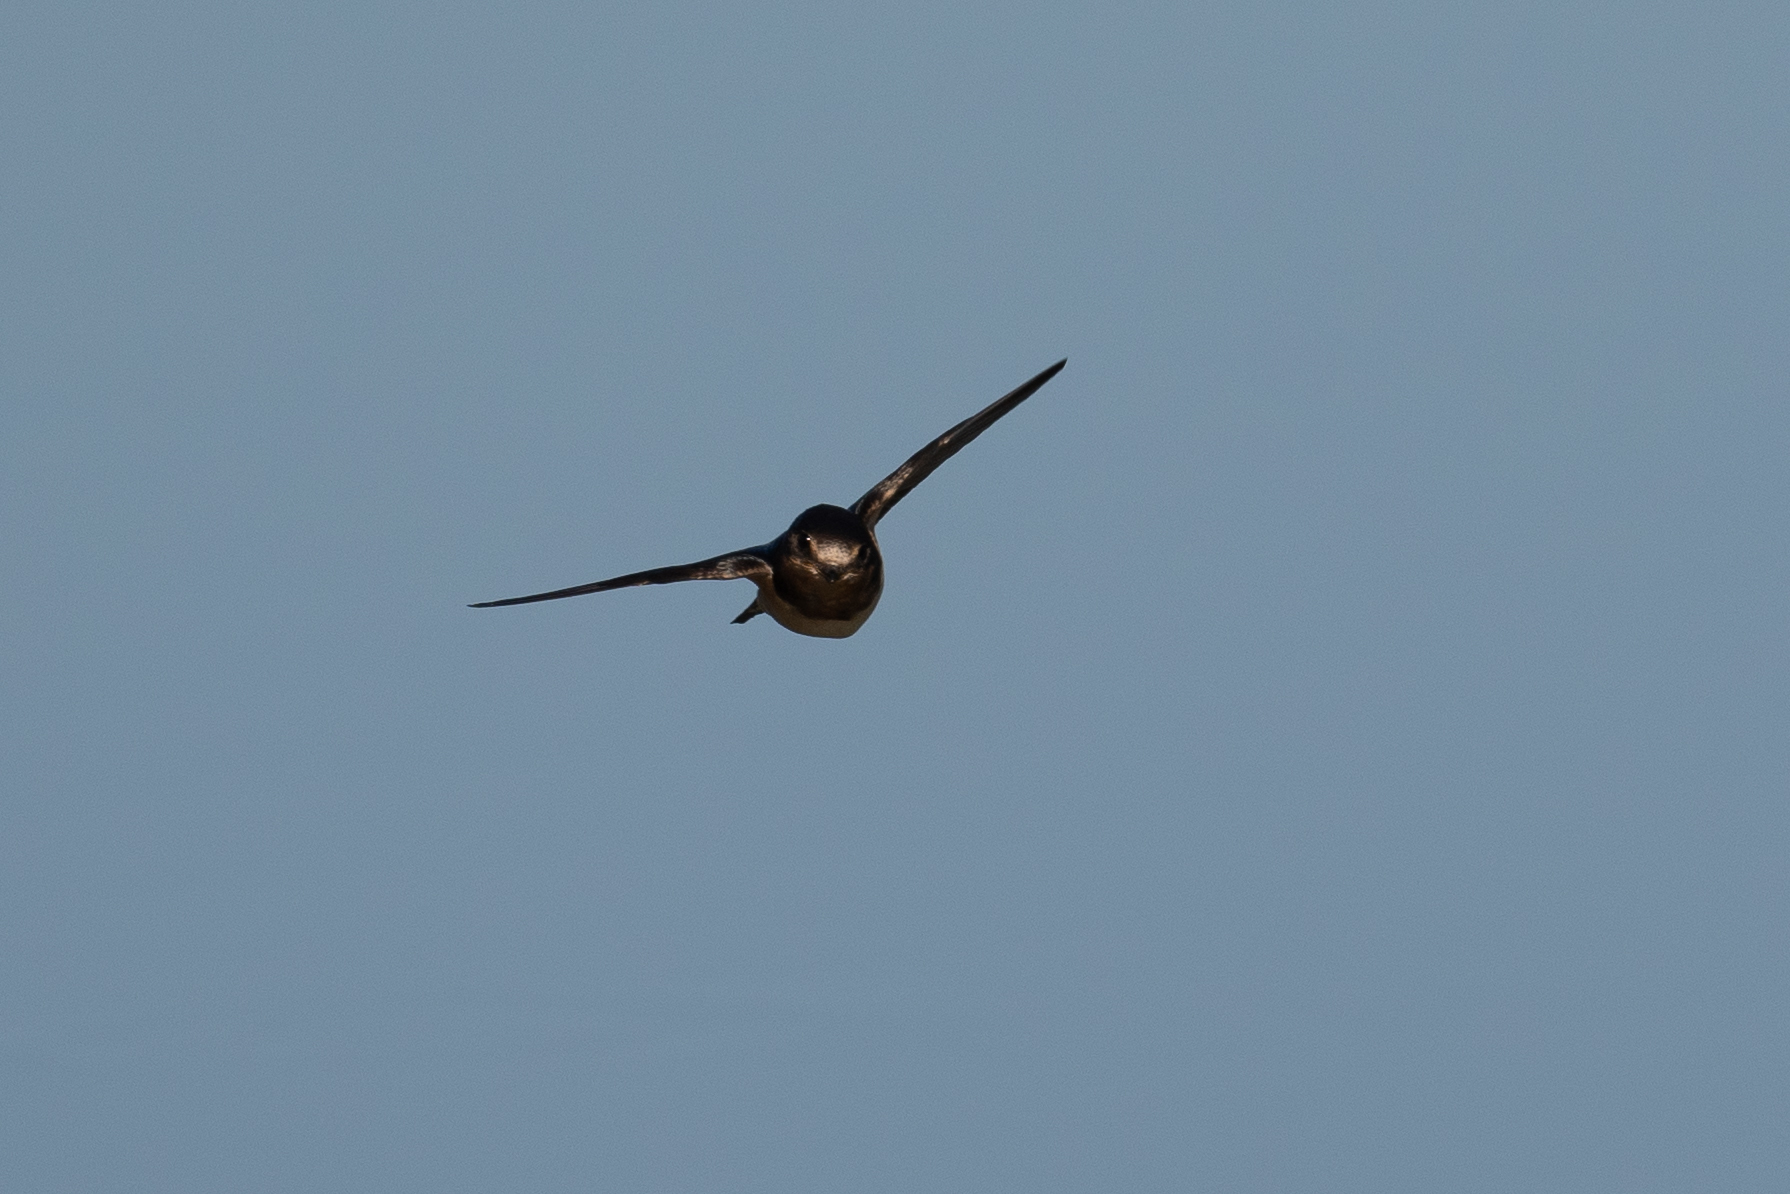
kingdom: Animalia
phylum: Chordata
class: Aves
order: Passeriformes
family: Hirundinidae
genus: Hirundo
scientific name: Hirundo rustica
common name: Barn swallow
